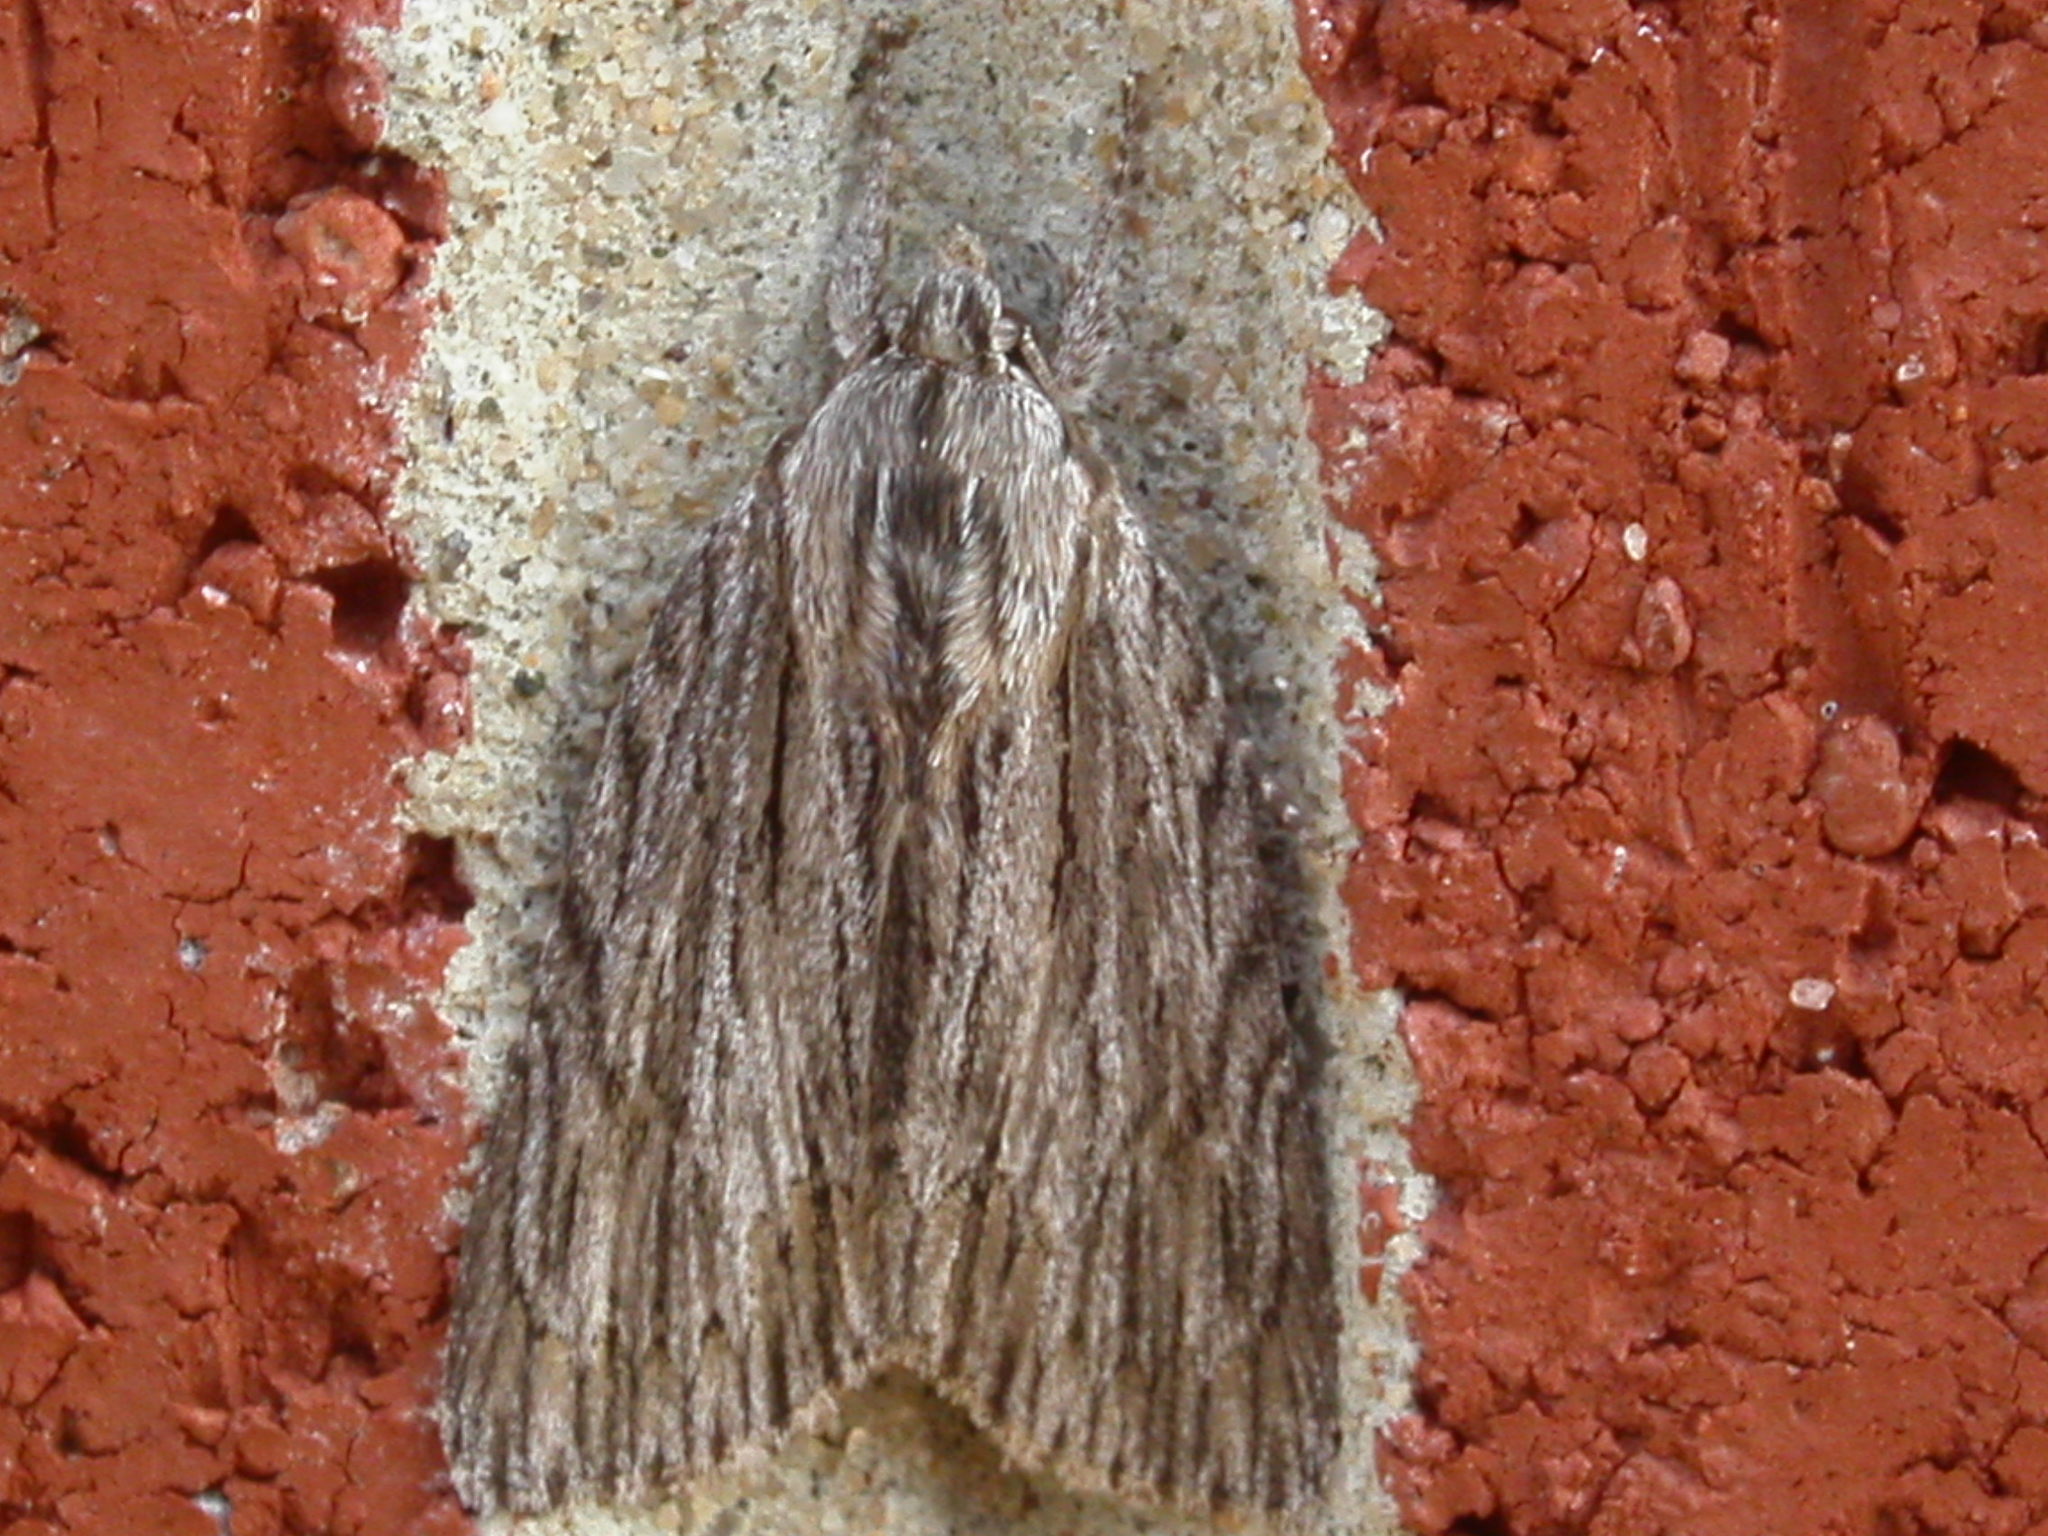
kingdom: Animalia
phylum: Arthropoda
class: Insecta
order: Lepidoptera
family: Noctuidae
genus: Acronicta
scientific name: Acronicta lithospila
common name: Streaked dagger
